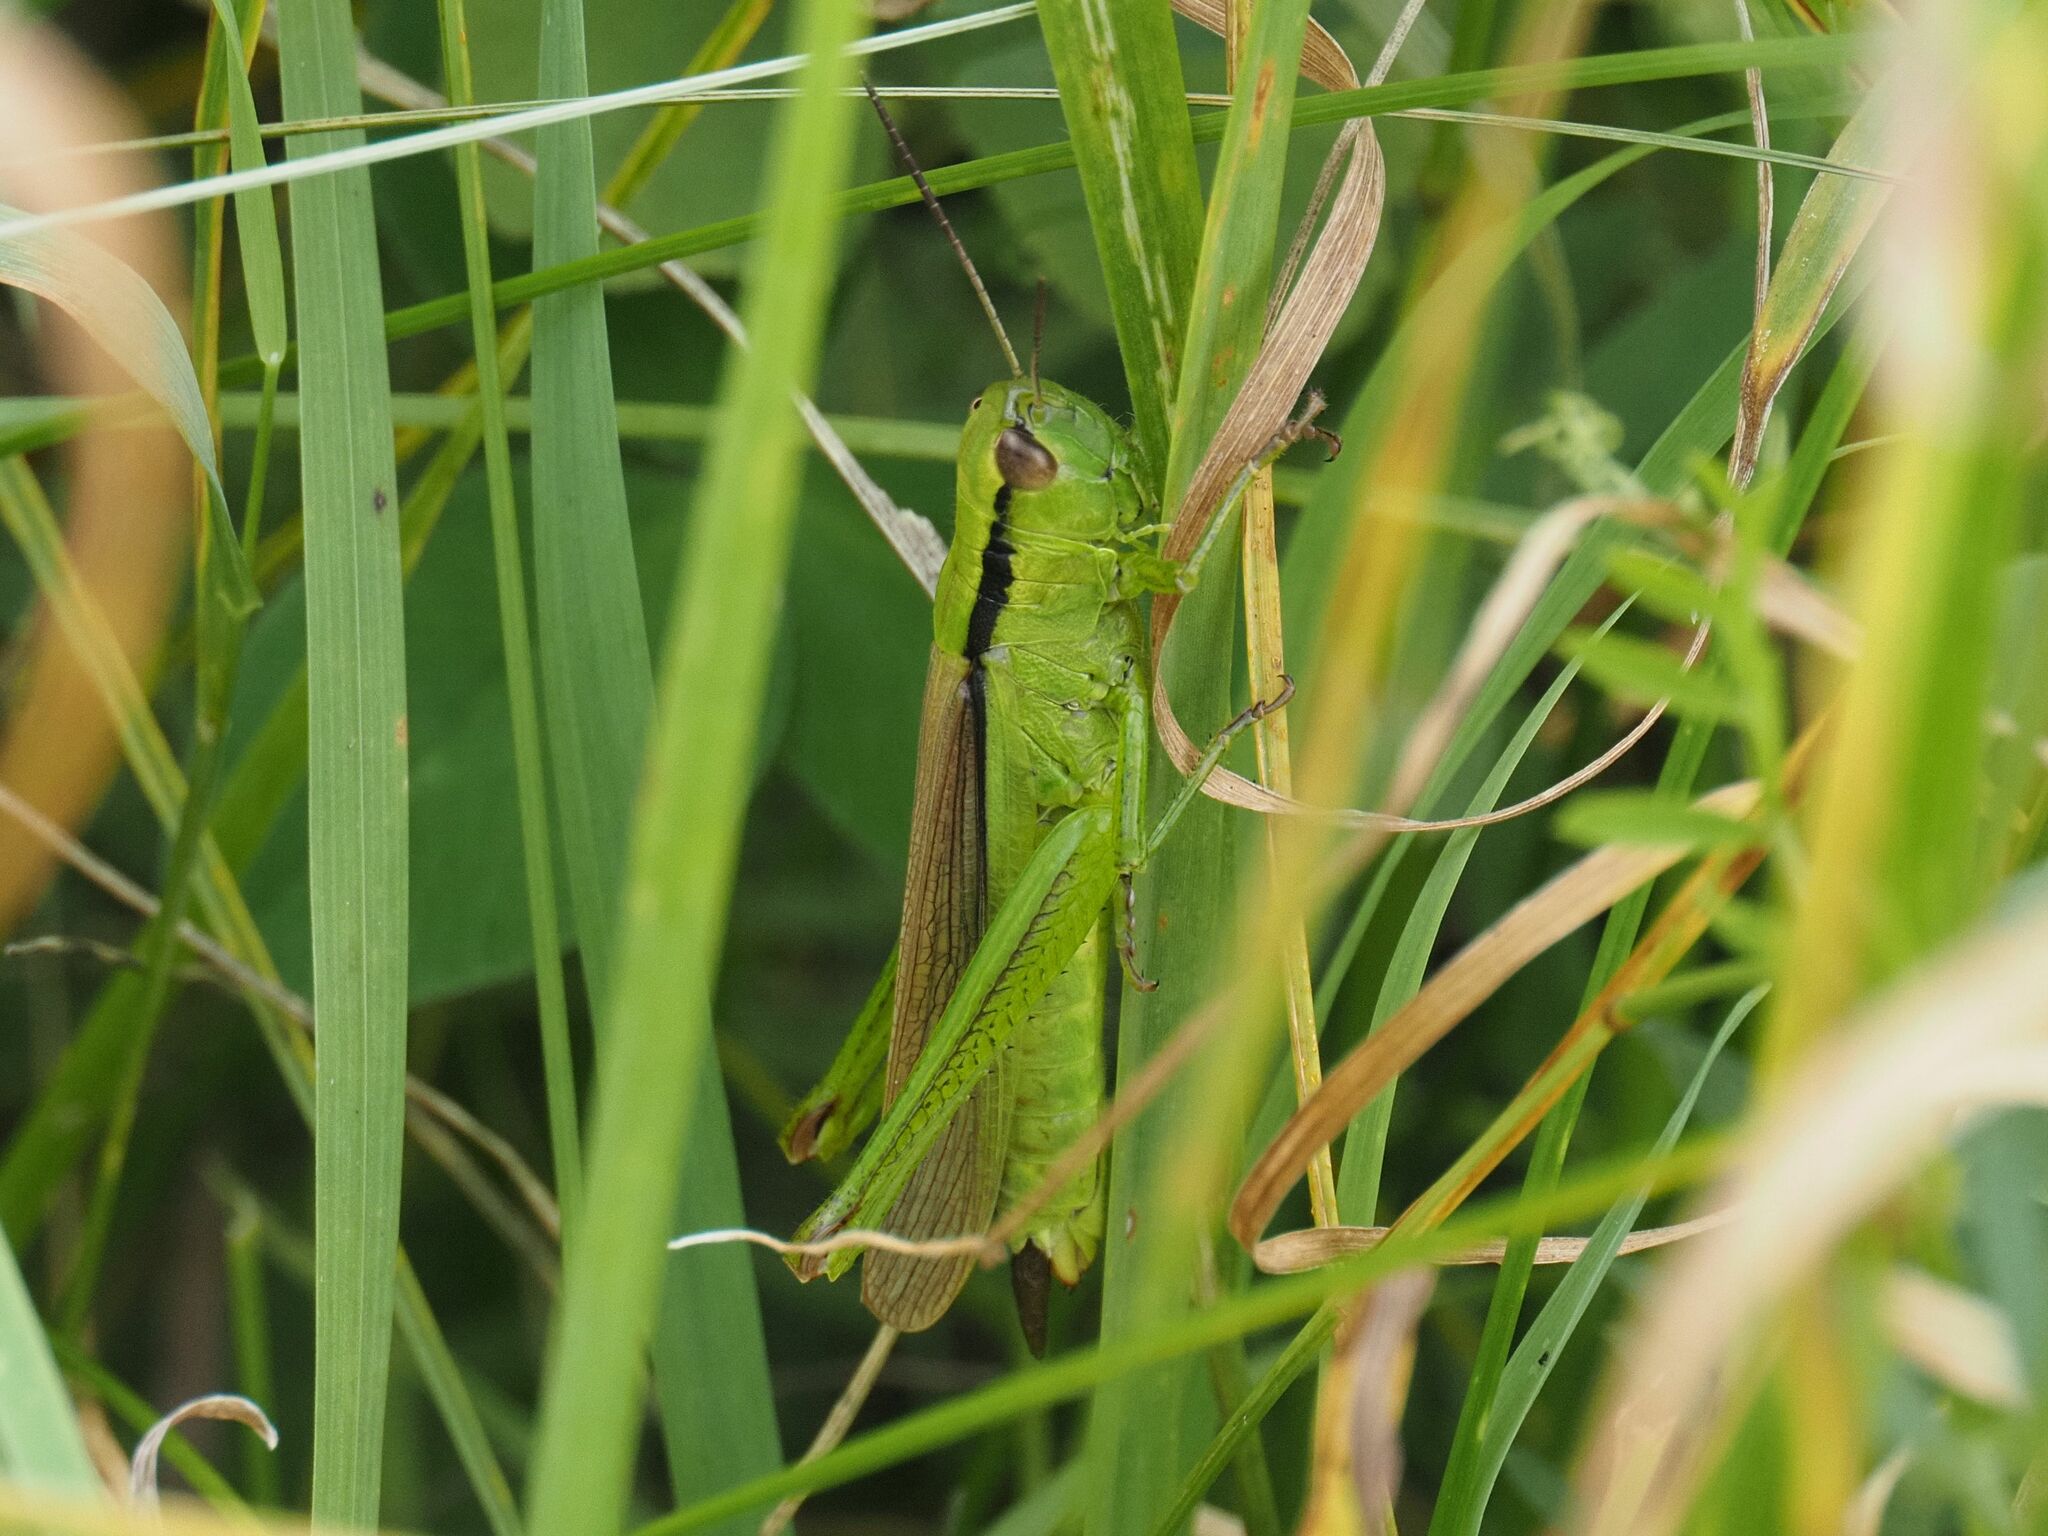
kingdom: Animalia
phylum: Arthropoda
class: Insecta
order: Orthoptera
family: Acrididae
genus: Mecostethus
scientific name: Mecostethus parapleurus
